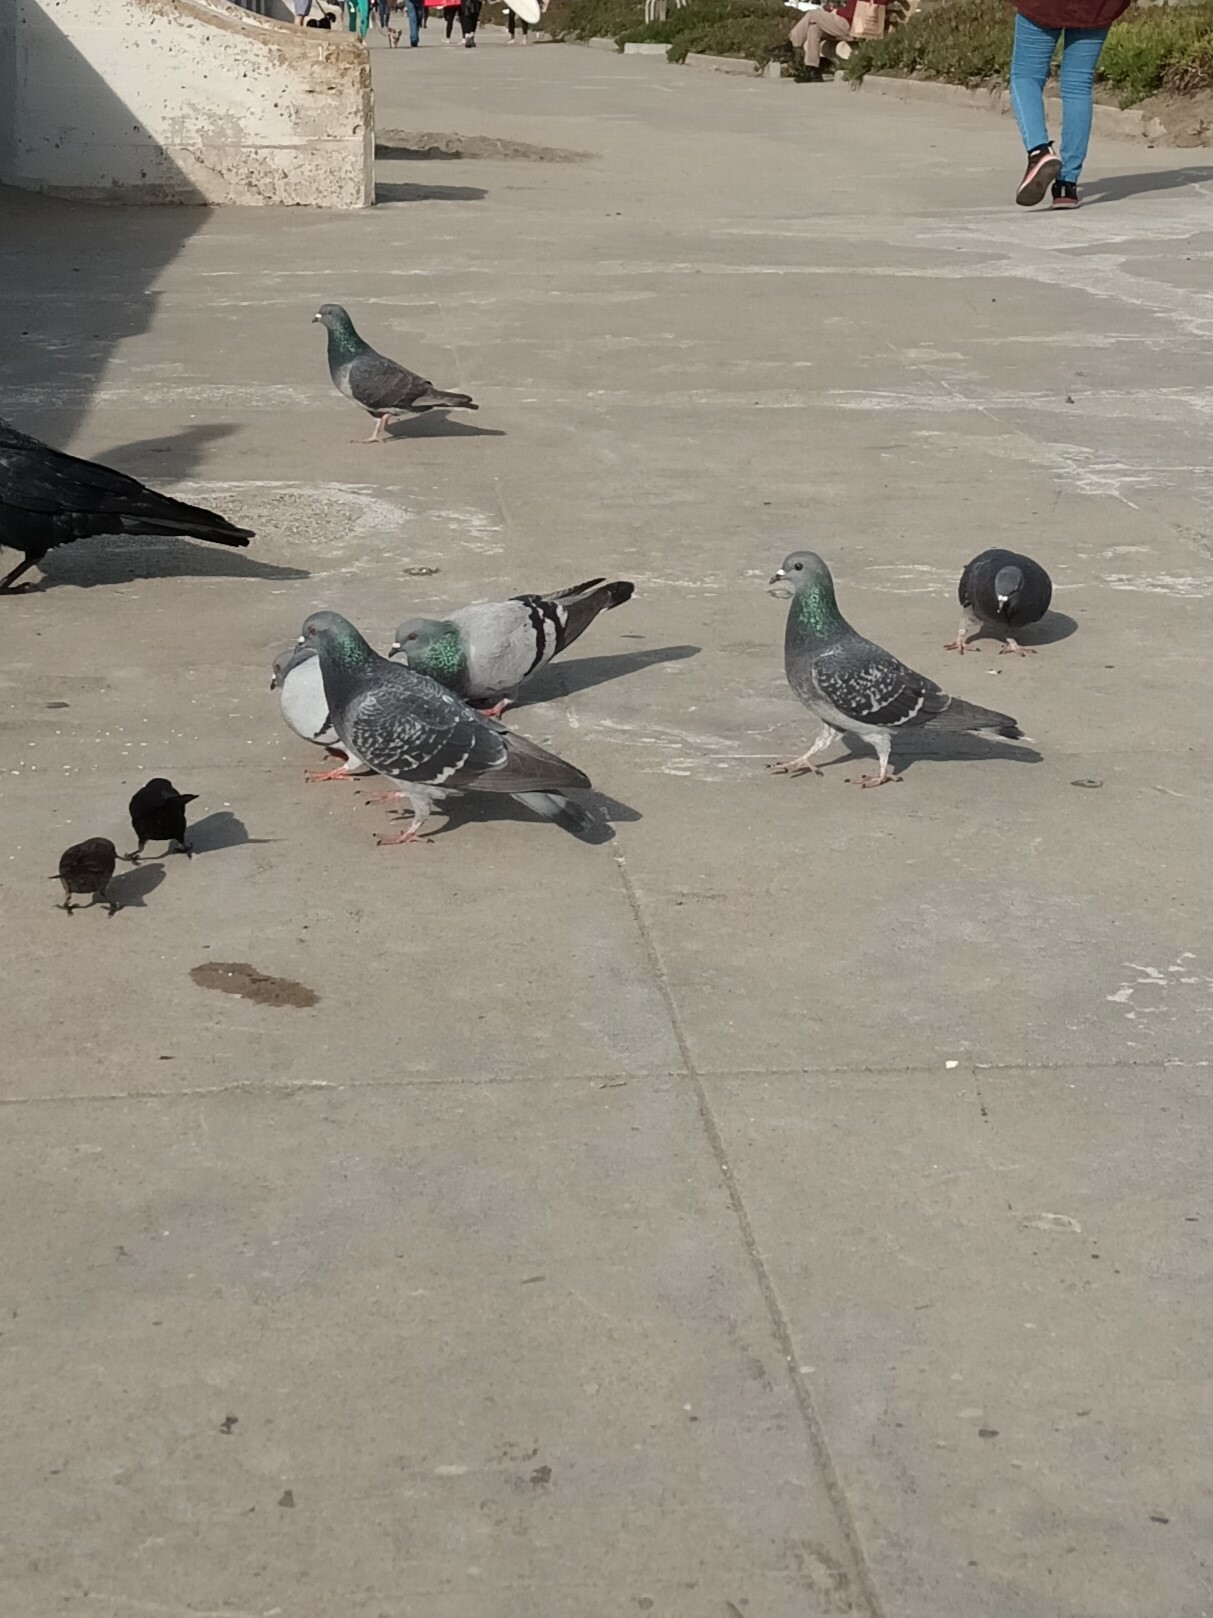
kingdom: Animalia
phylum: Chordata
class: Aves
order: Columbiformes
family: Columbidae
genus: Columba
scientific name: Columba livia
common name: Rock pigeon
